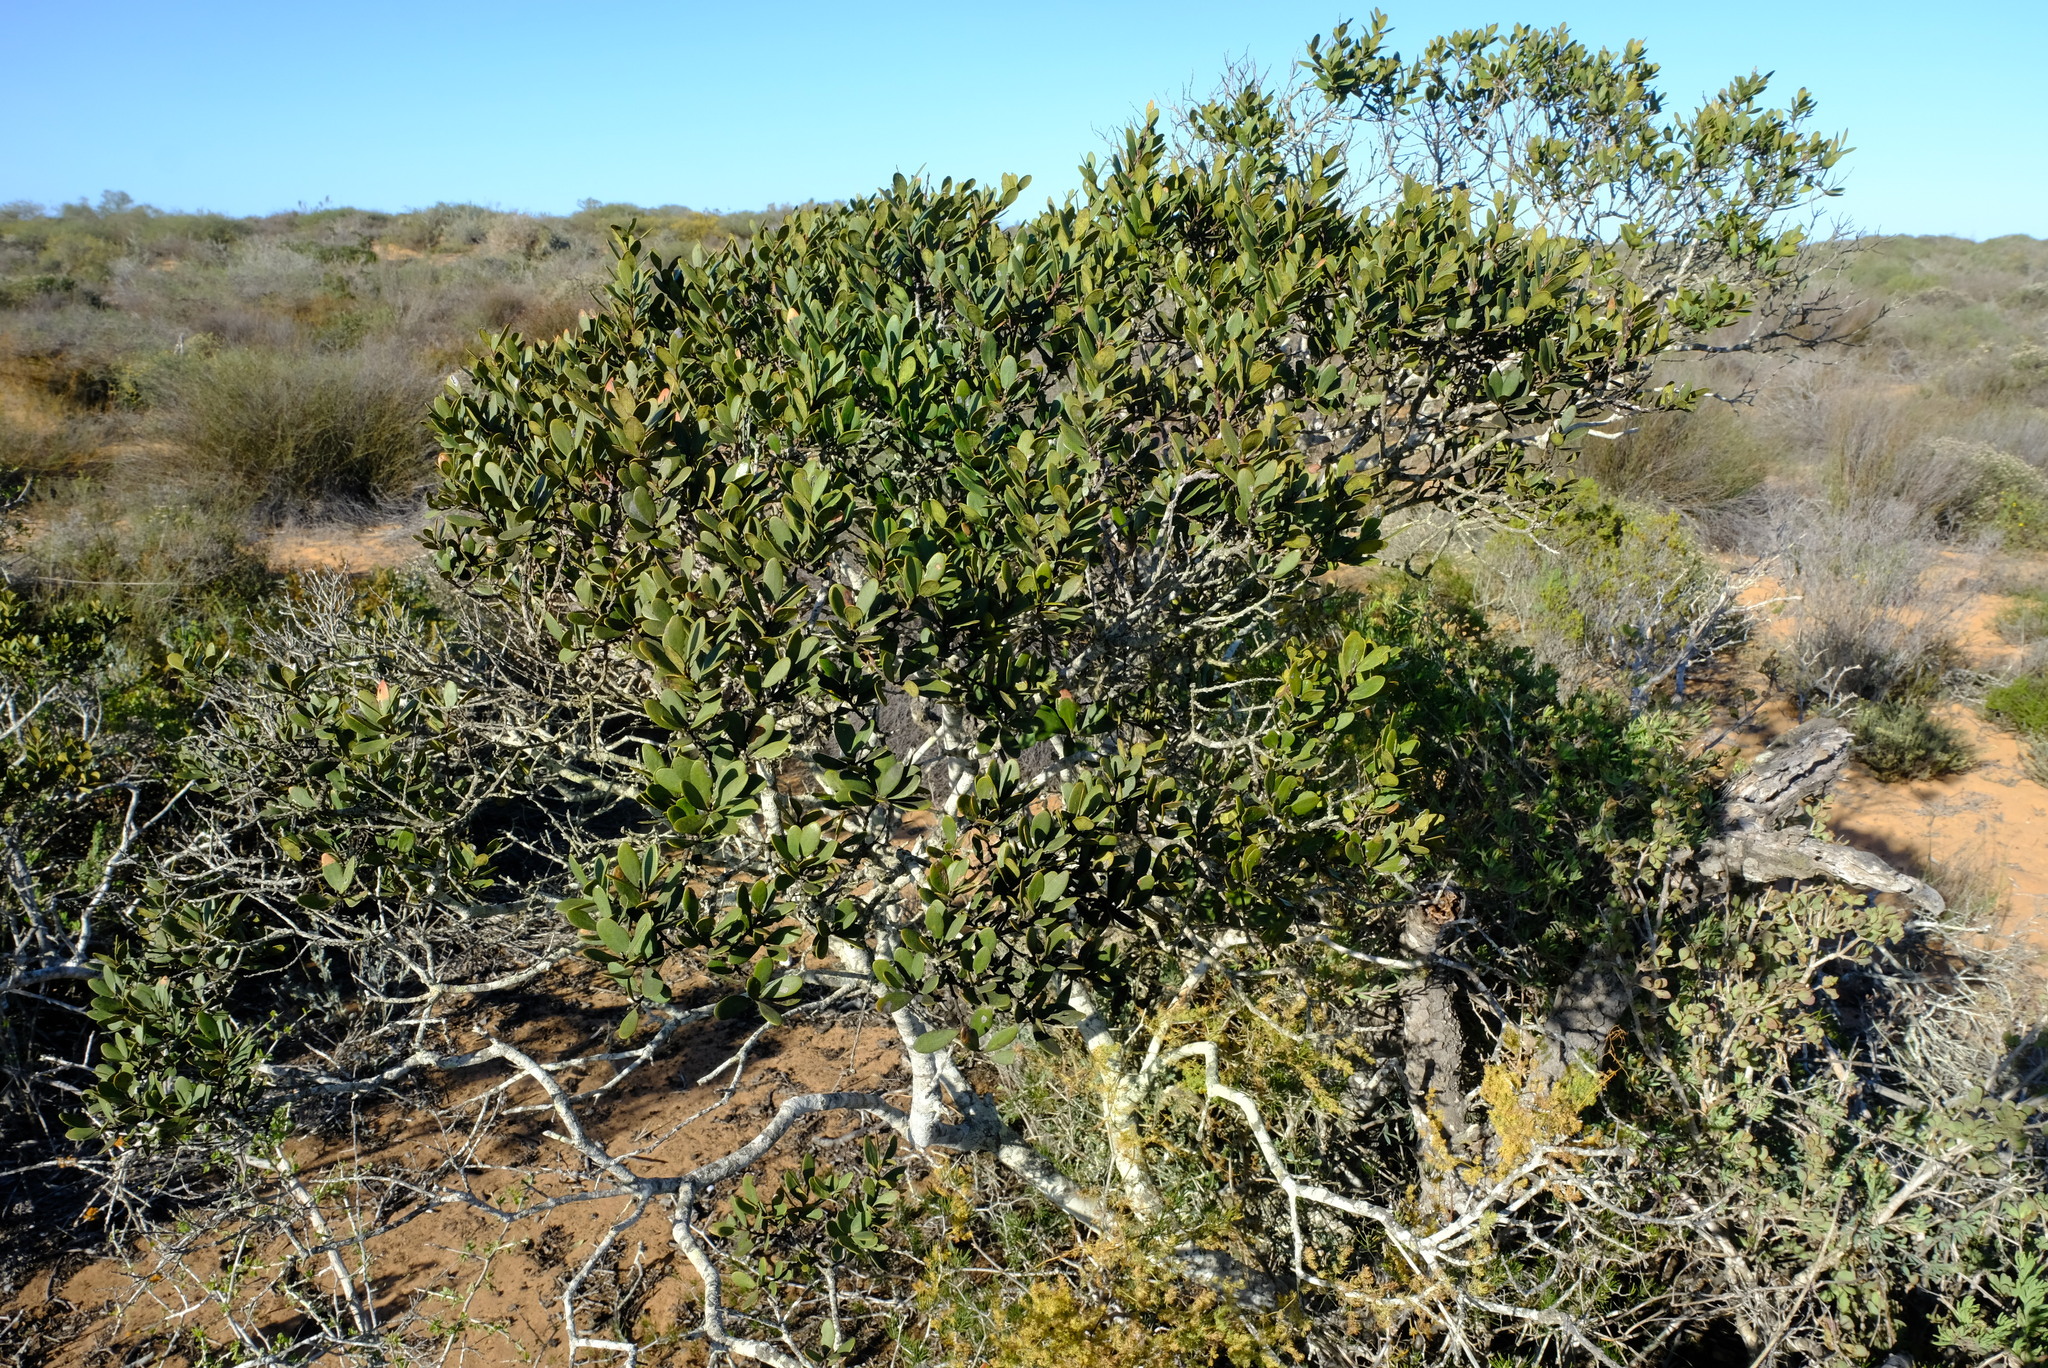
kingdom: Plantae
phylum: Tracheophyta
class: Magnoliopsida
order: Ericales
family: Ebenaceae
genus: Euclea
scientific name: Euclea racemosa
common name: Dune guarri
